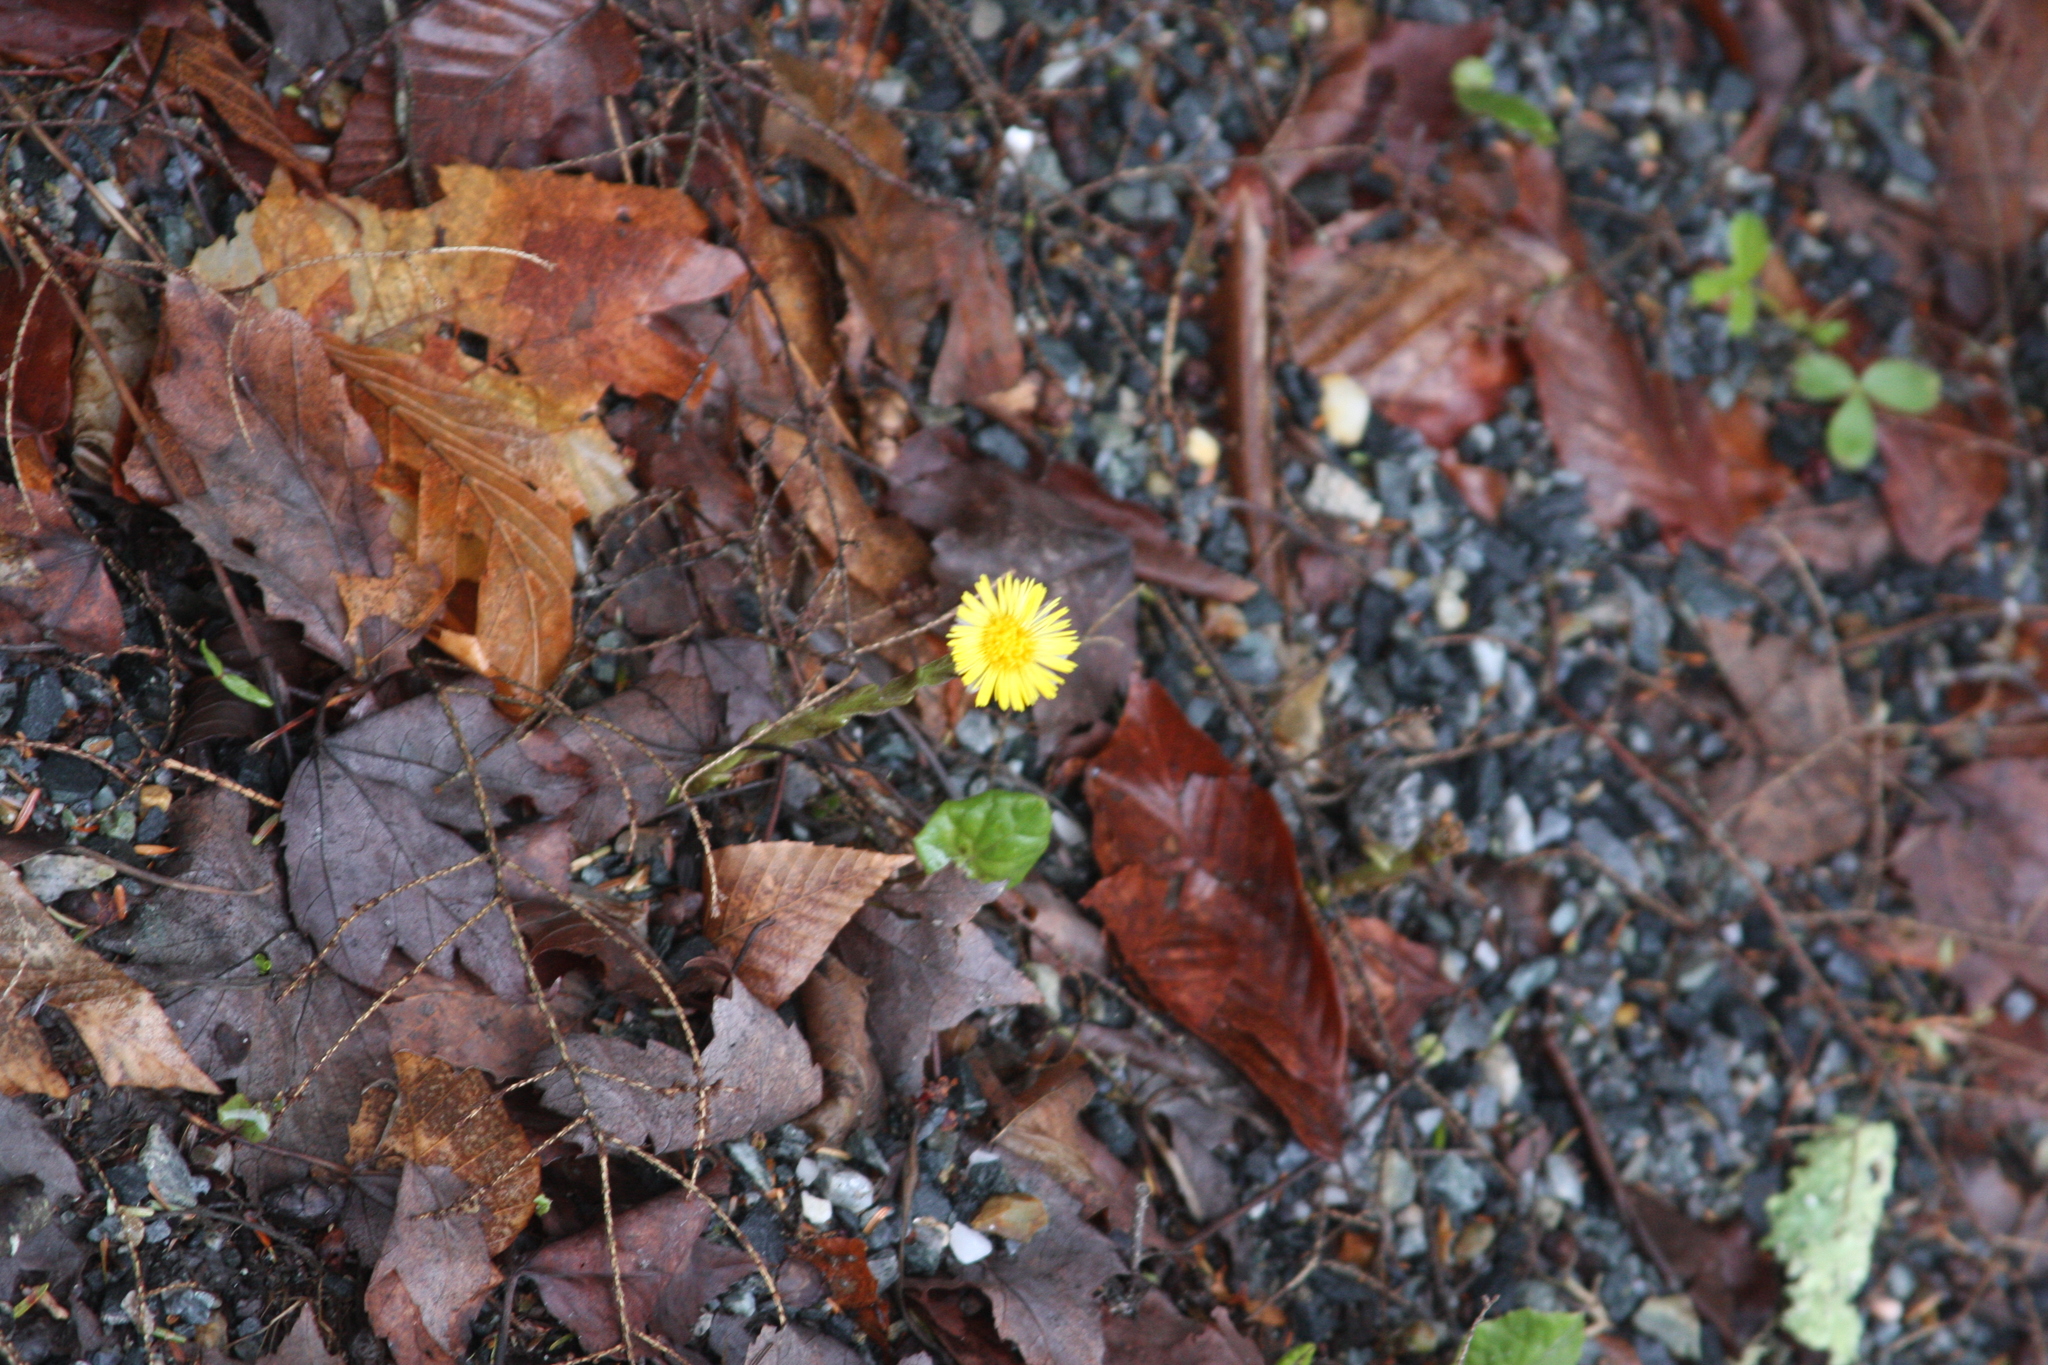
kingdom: Plantae
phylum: Tracheophyta
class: Magnoliopsida
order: Asterales
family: Asteraceae
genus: Tussilago
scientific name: Tussilago farfara
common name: Coltsfoot
